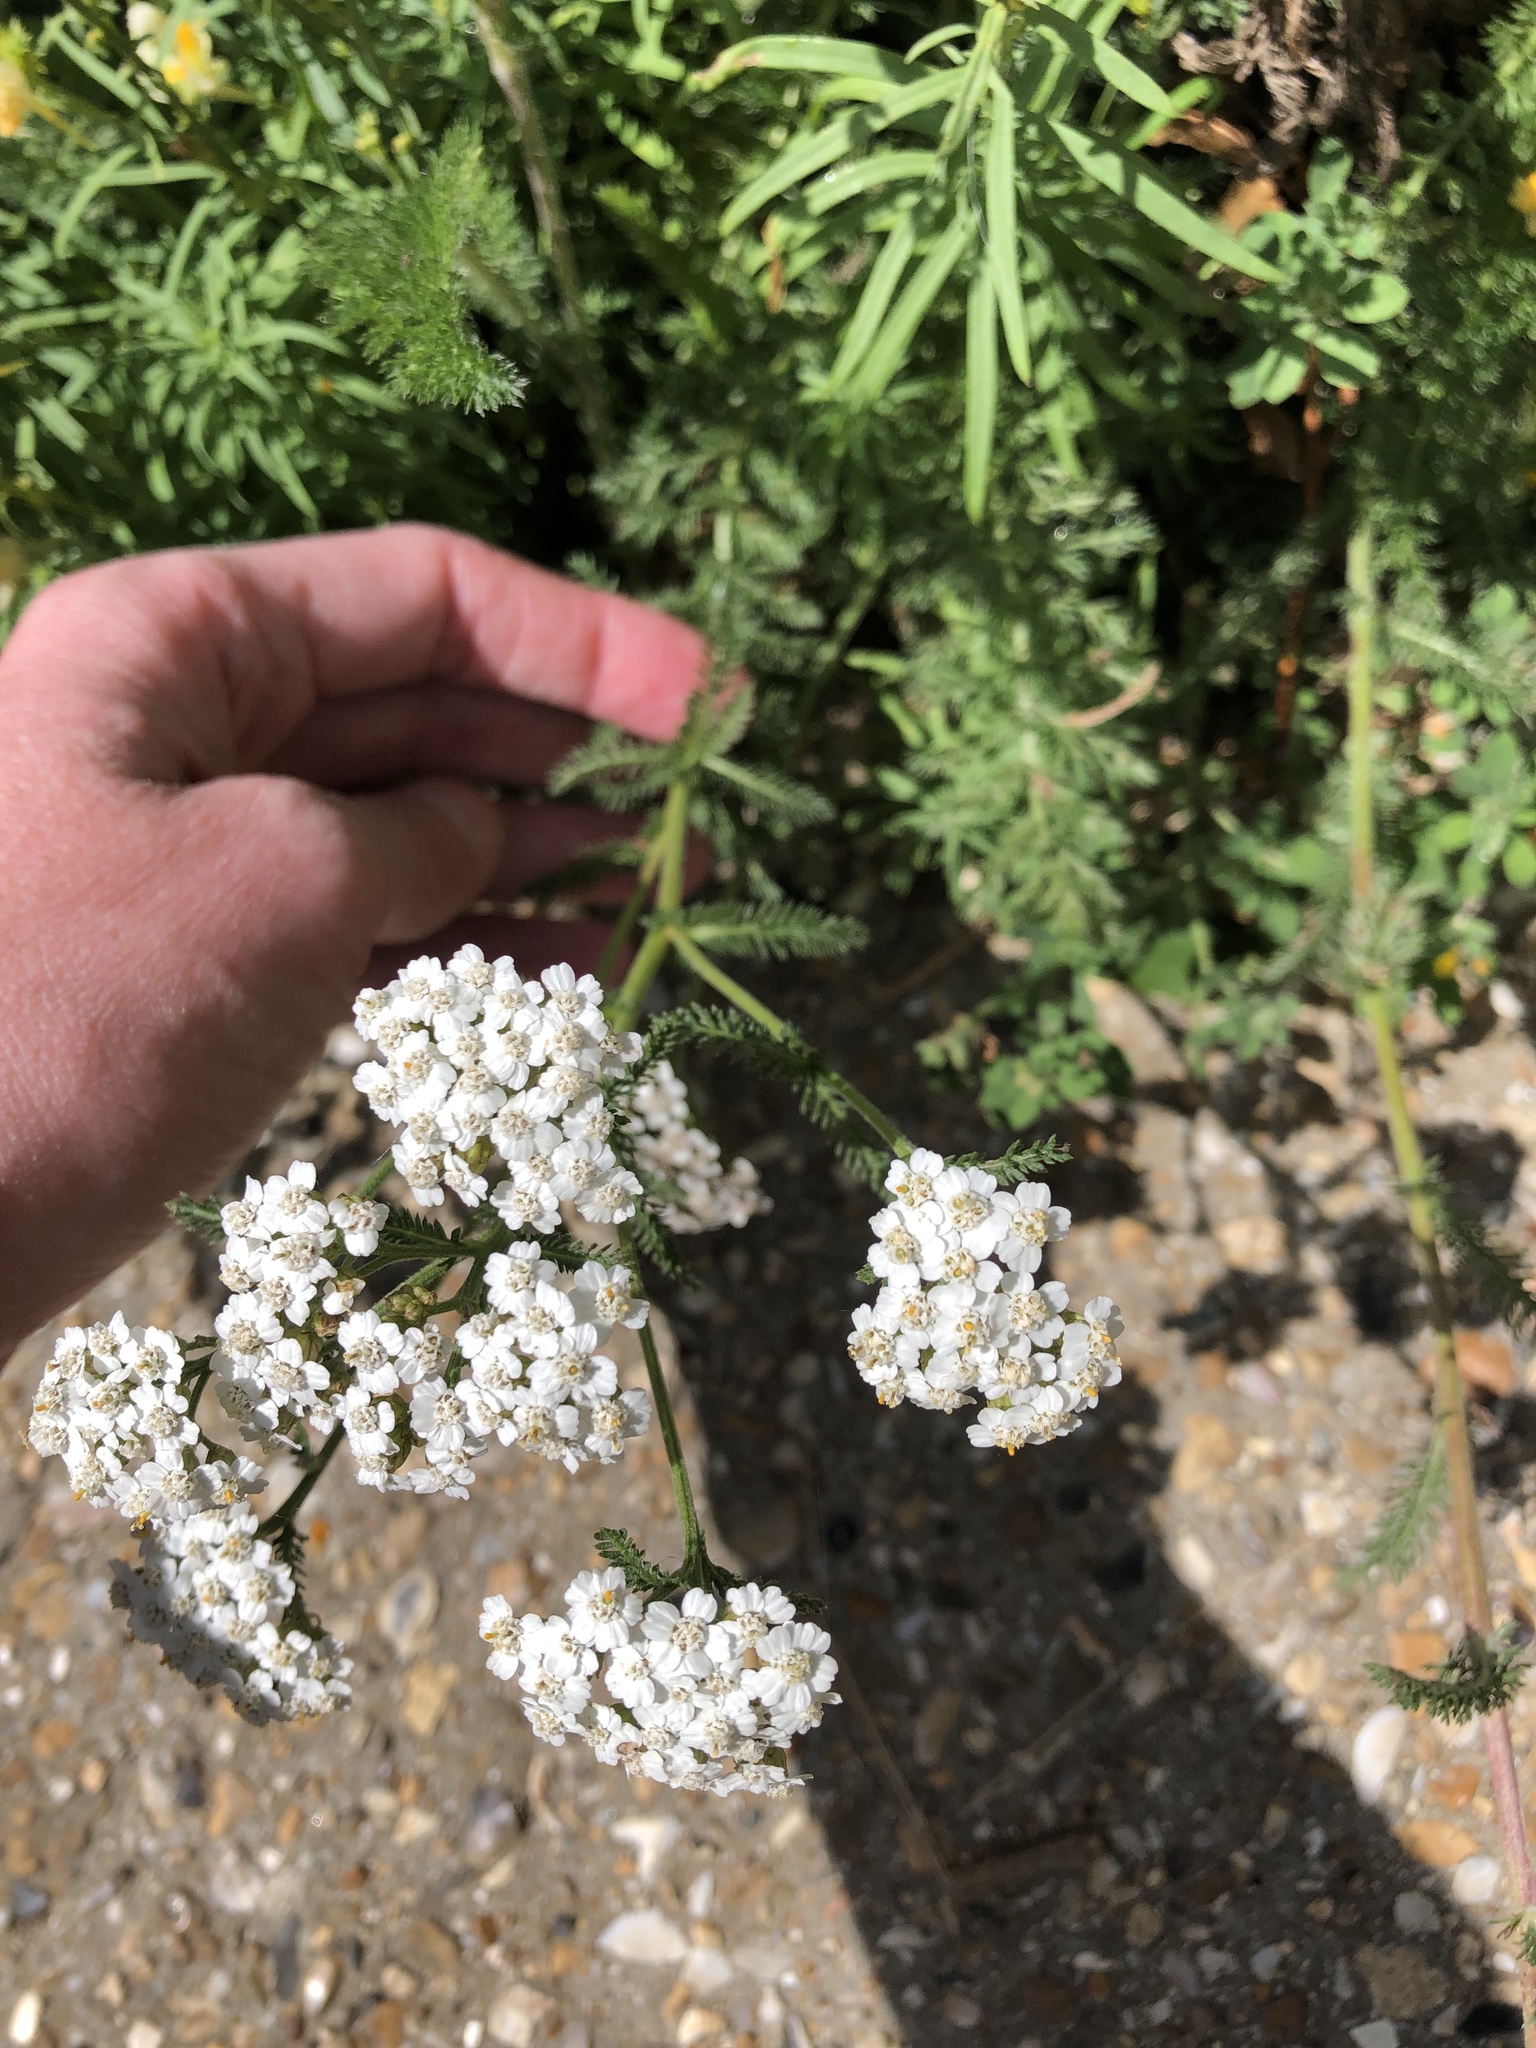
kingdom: Plantae
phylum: Tracheophyta
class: Magnoliopsida
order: Asterales
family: Asteraceae
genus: Achillea
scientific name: Achillea millefolium
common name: Yarrow
